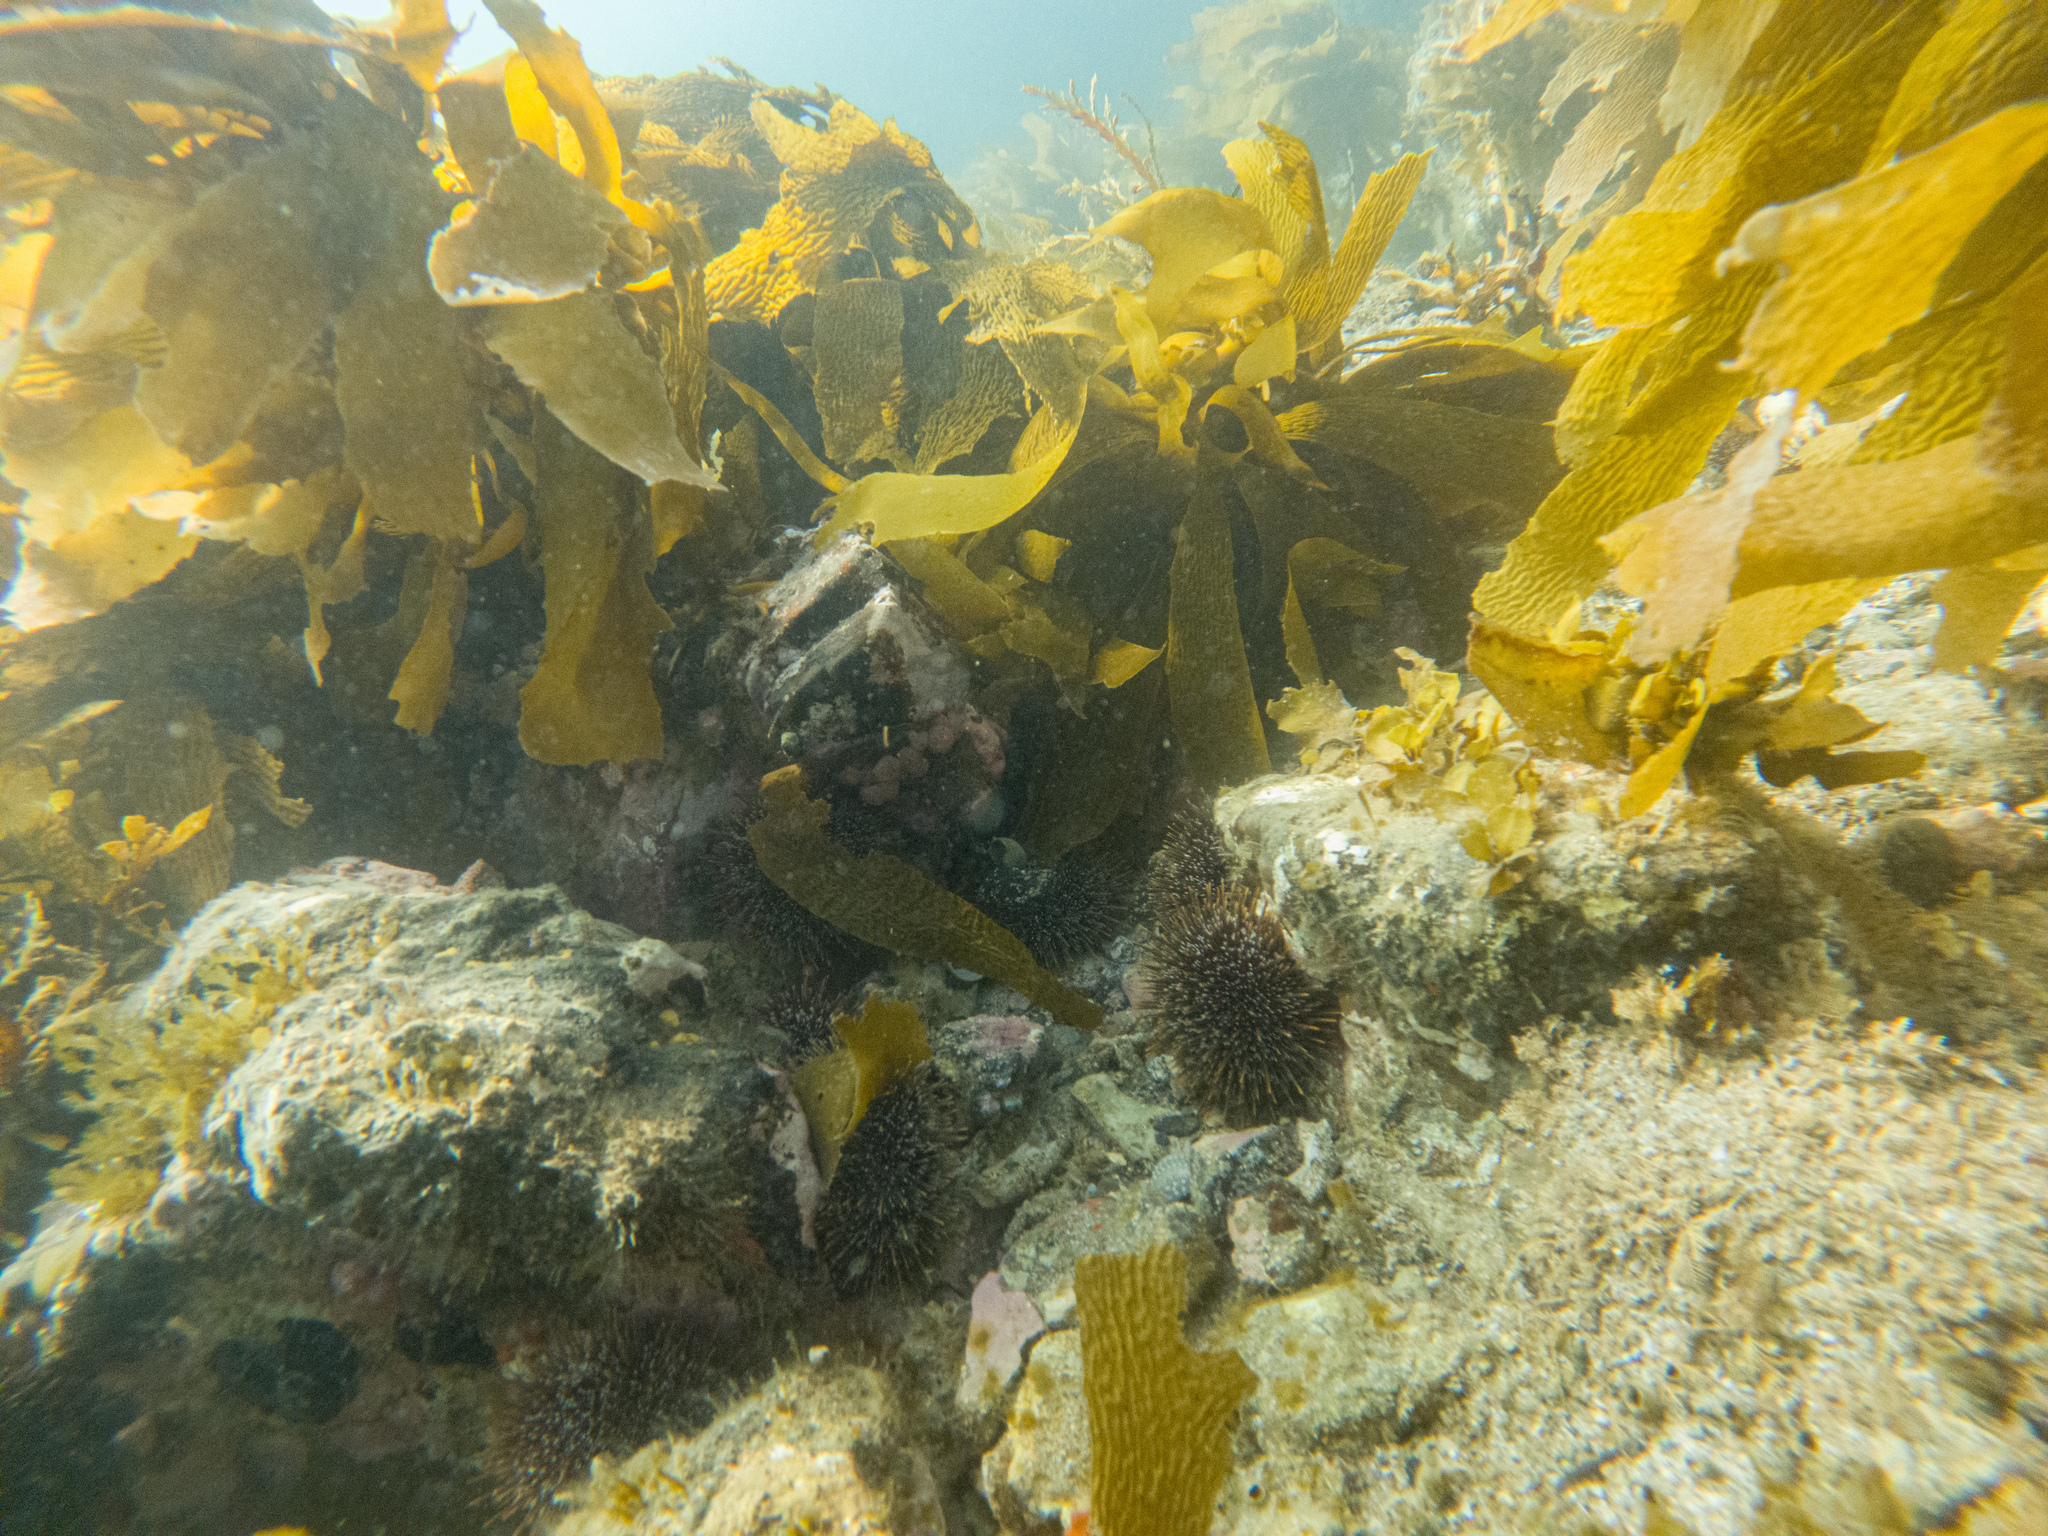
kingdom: Animalia
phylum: Echinodermata
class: Echinoidea
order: Camarodonta
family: Echinometridae
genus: Evechinus
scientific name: Evechinus chloroticus
